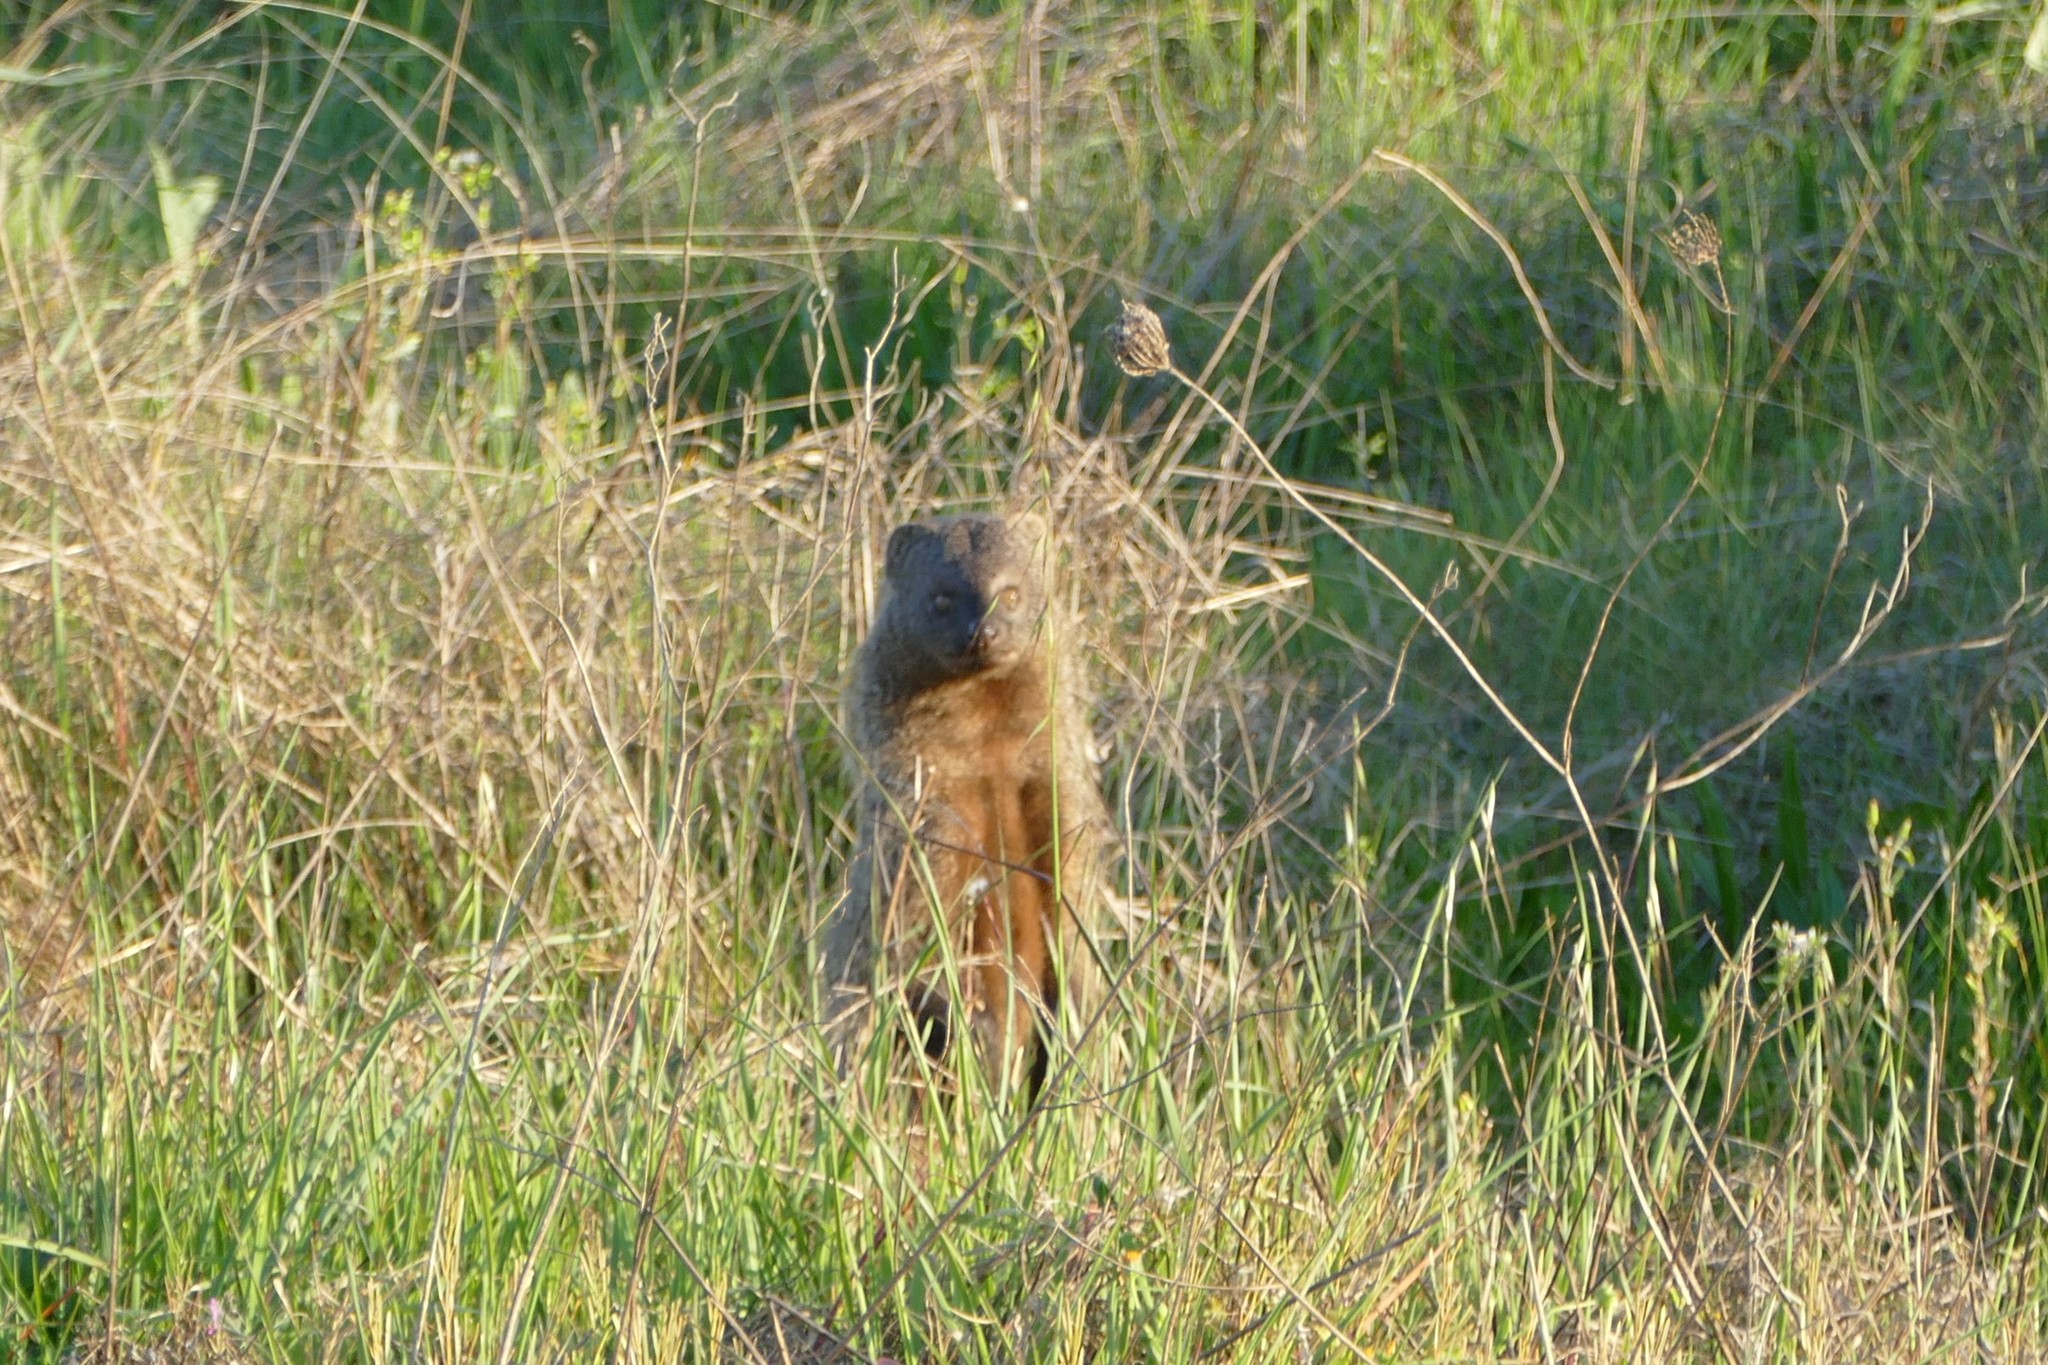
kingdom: Animalia
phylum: Chordata
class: Mammalia
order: Carnivora
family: Herpestidae
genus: Herpestes
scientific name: Herpestes ichneumon
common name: Egyptian mongoose
